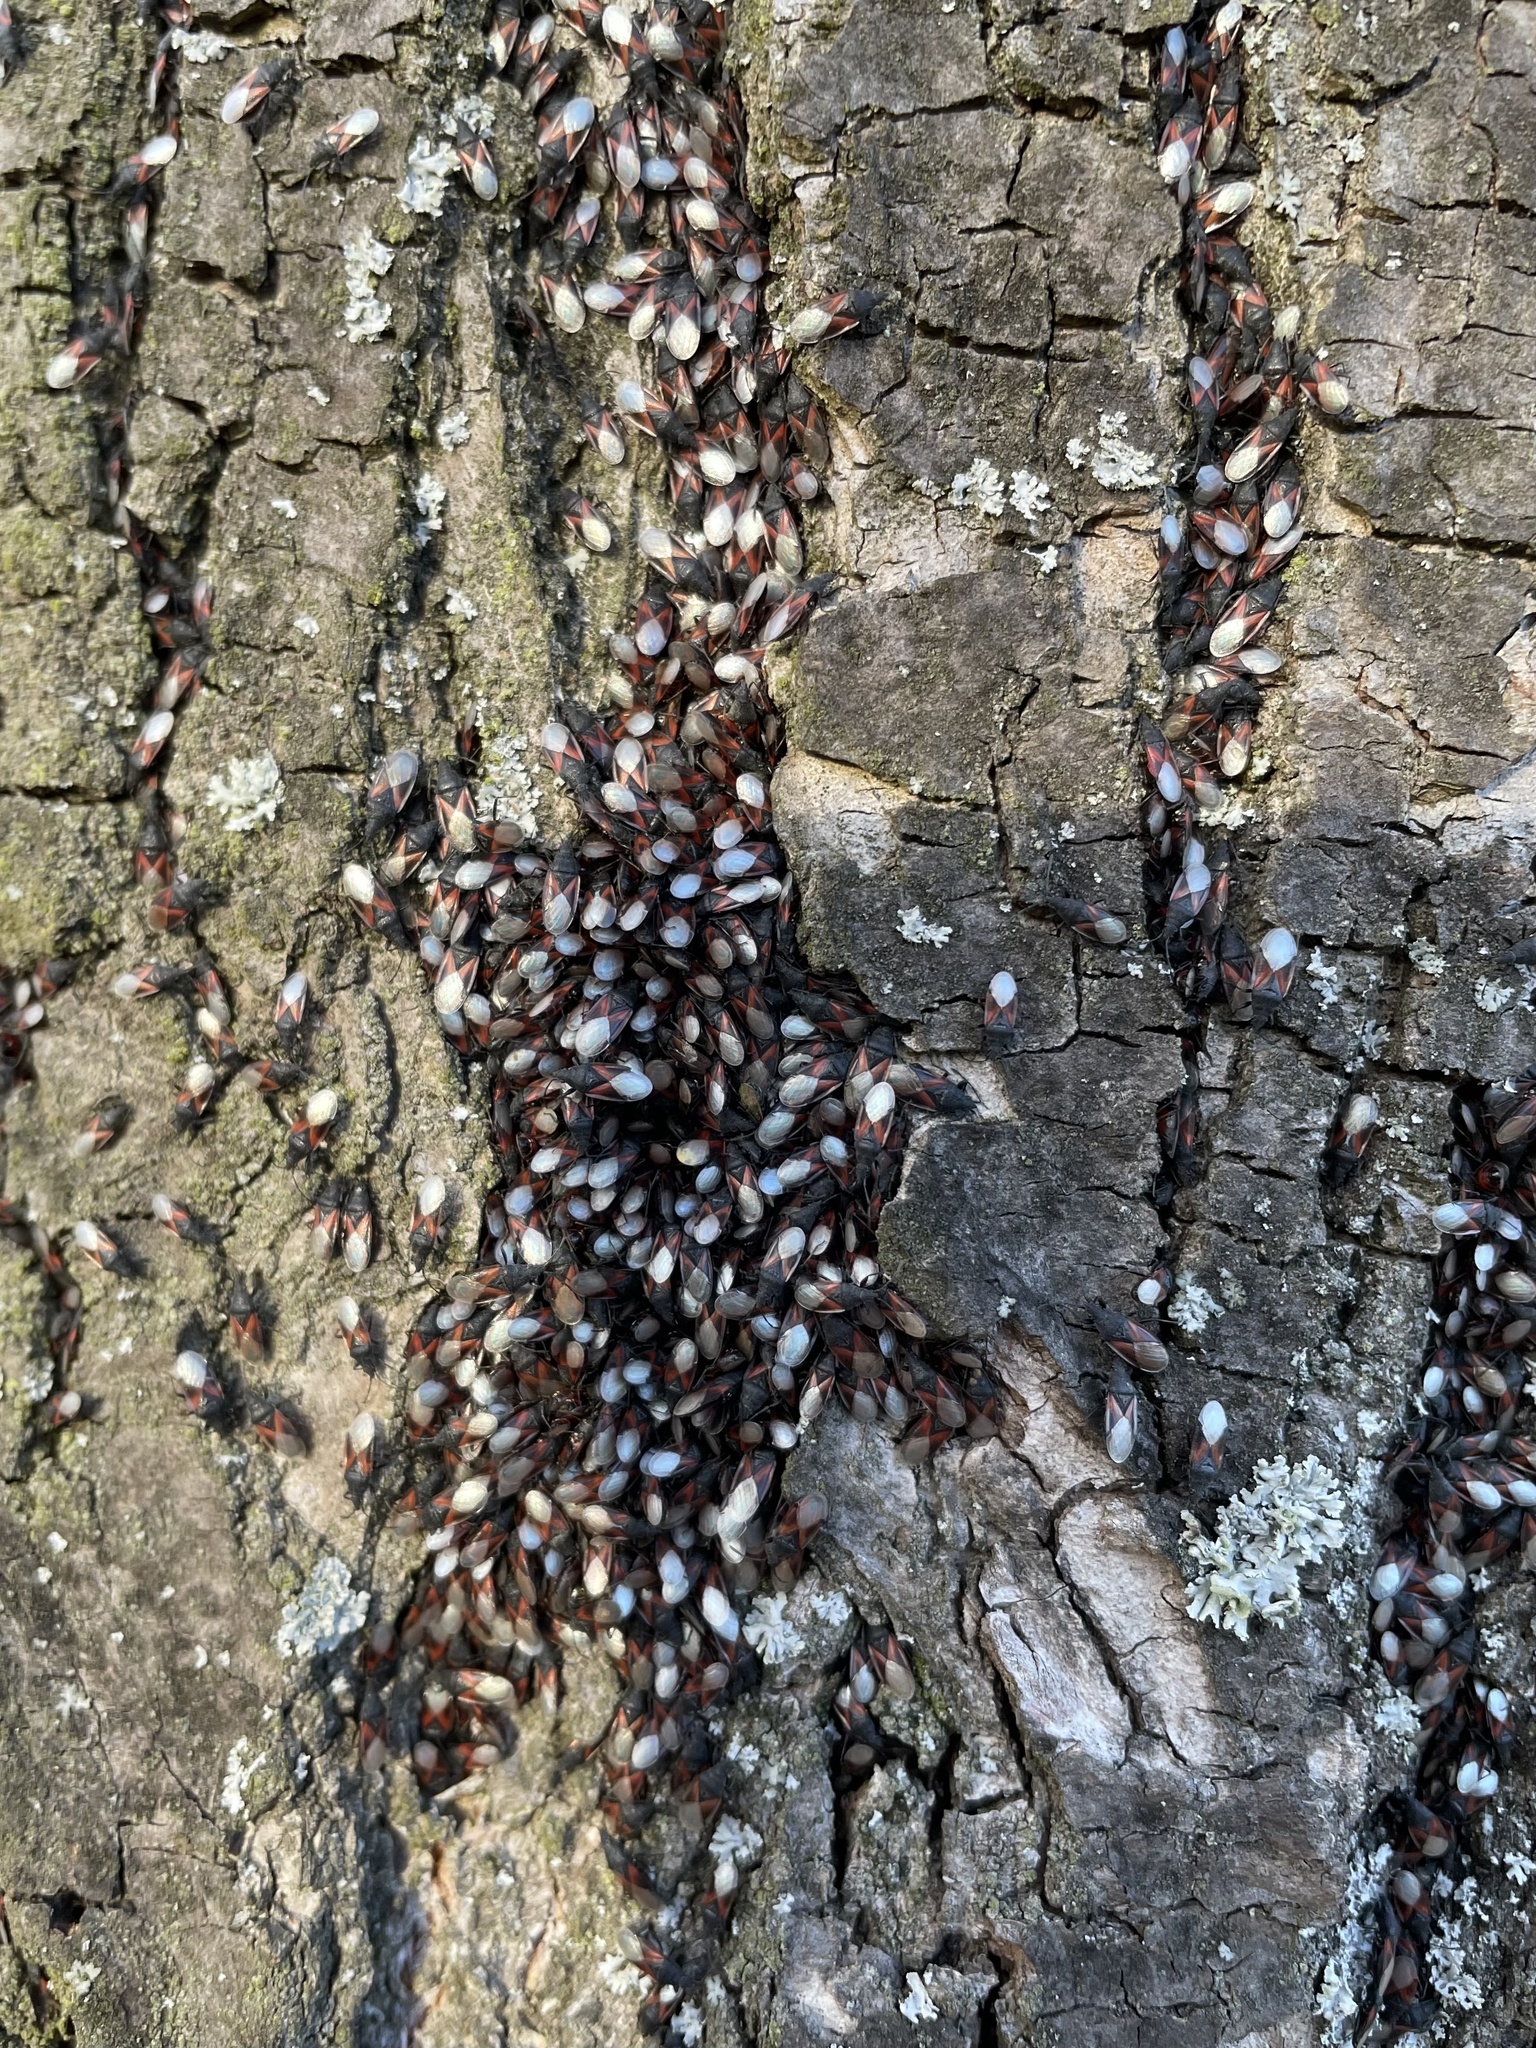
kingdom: Animalia
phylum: Arthropoda
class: Insecta
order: Hemiptera
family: Oxycarenidae
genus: Oxycarenus
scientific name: Oxycarenus lavaterae
